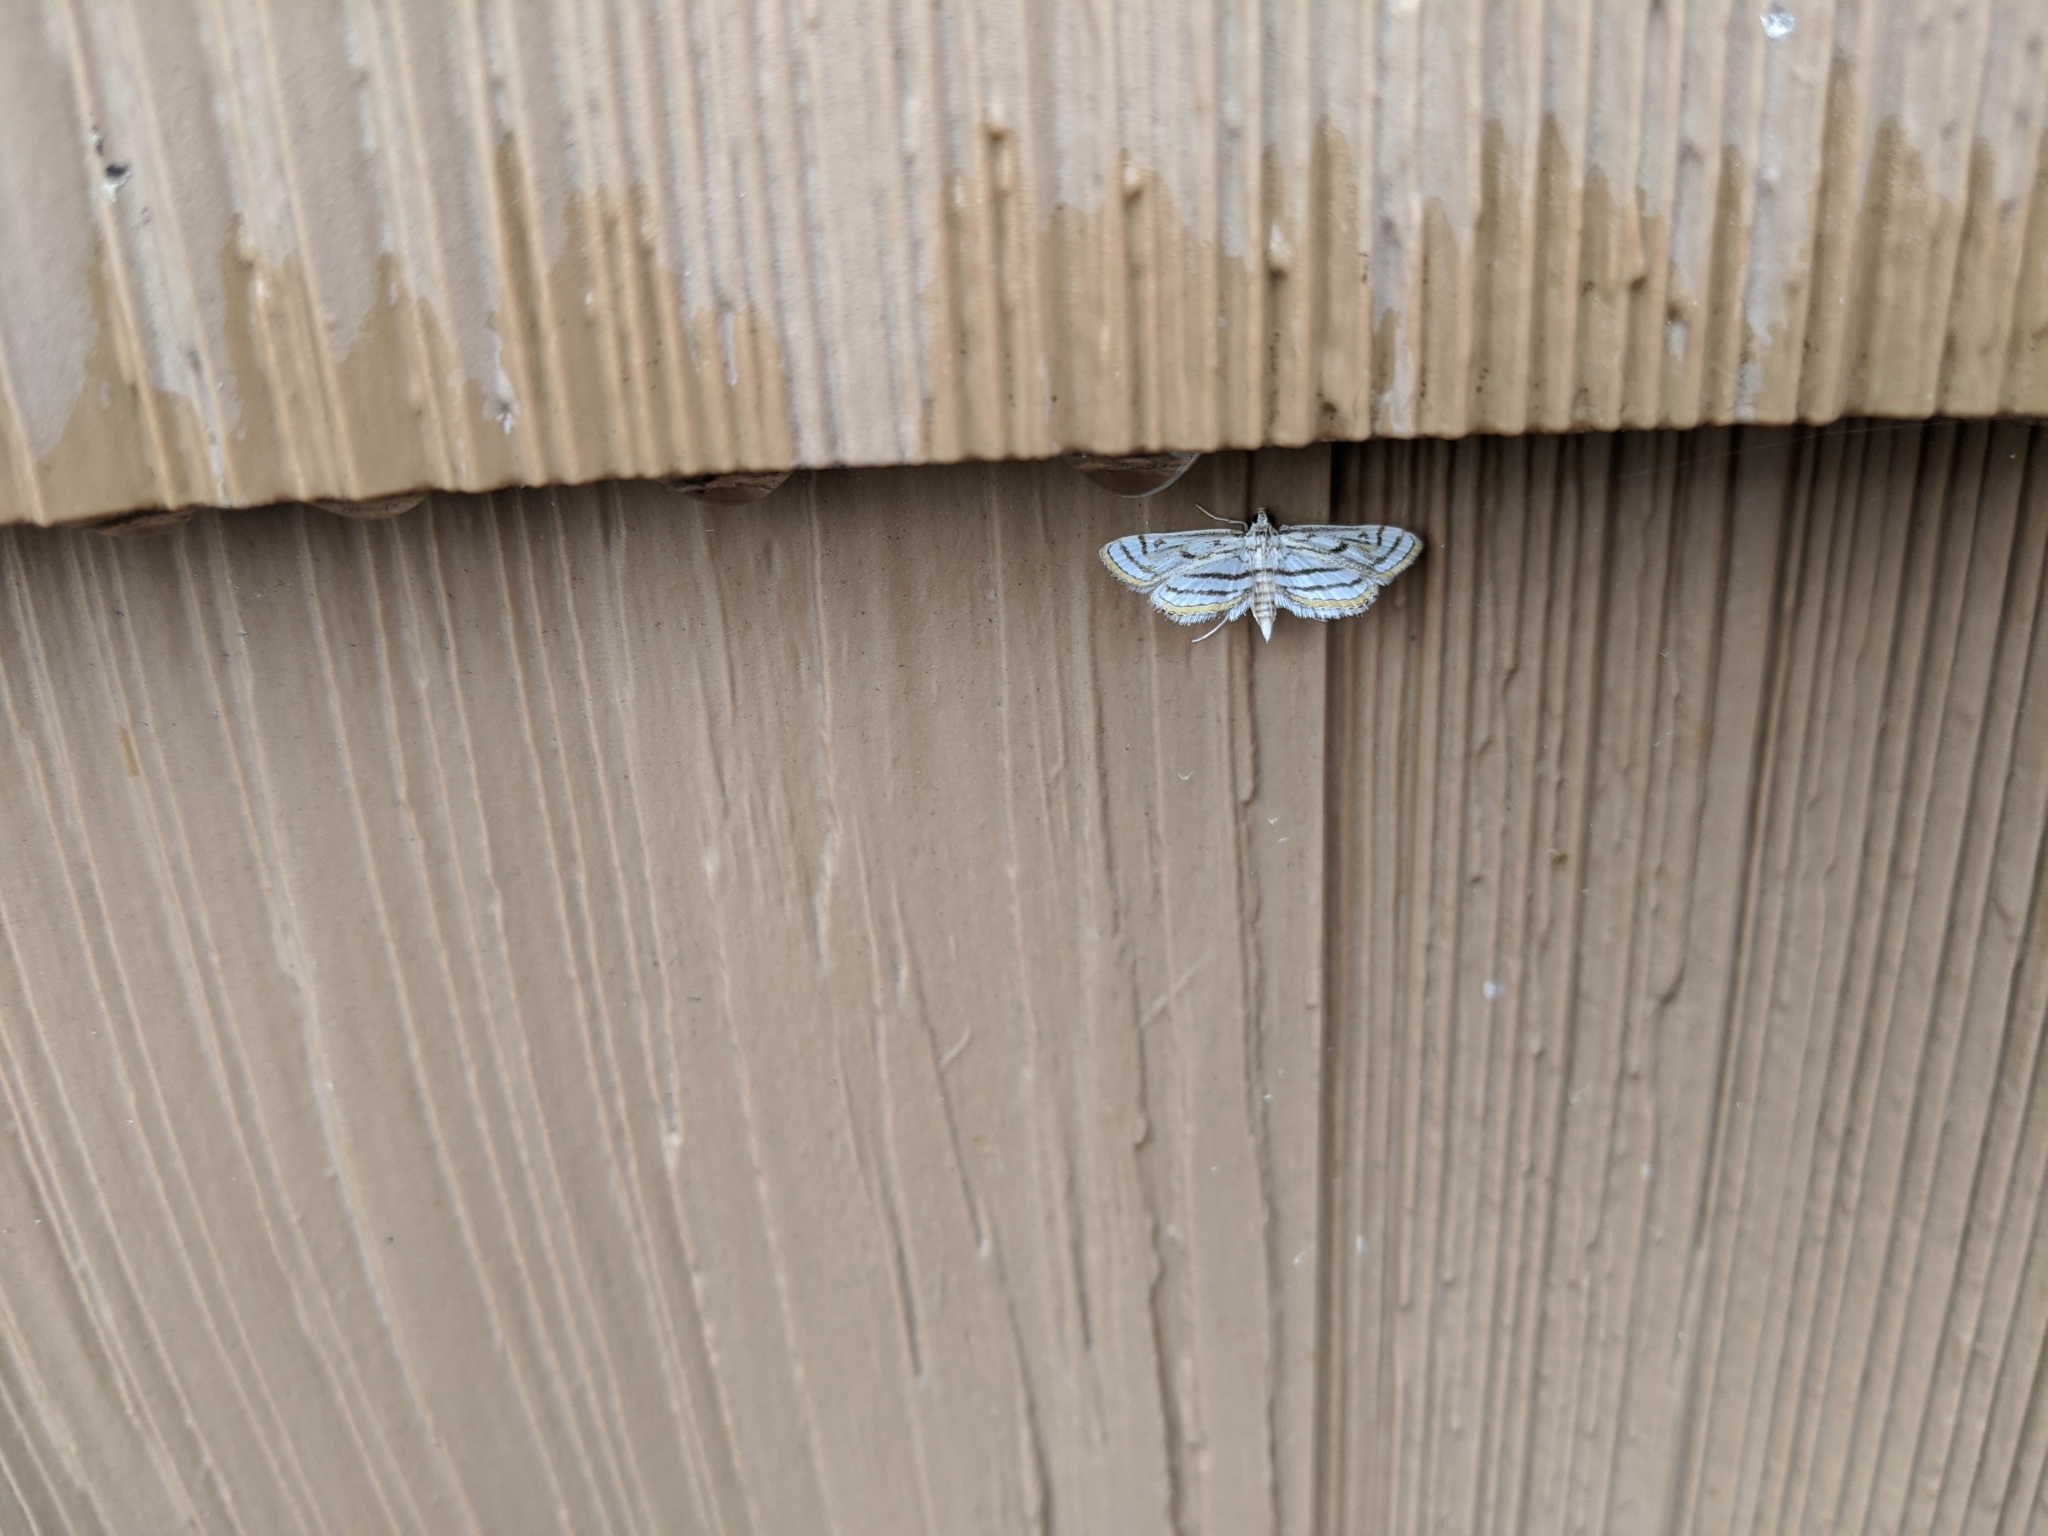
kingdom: Animalia
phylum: Arthropoda
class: Insecta
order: Lepidoptera
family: Crambidae
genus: Parapoynx
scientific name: Parapoynx badiusalis
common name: Chestnut-marked pondweed moth
